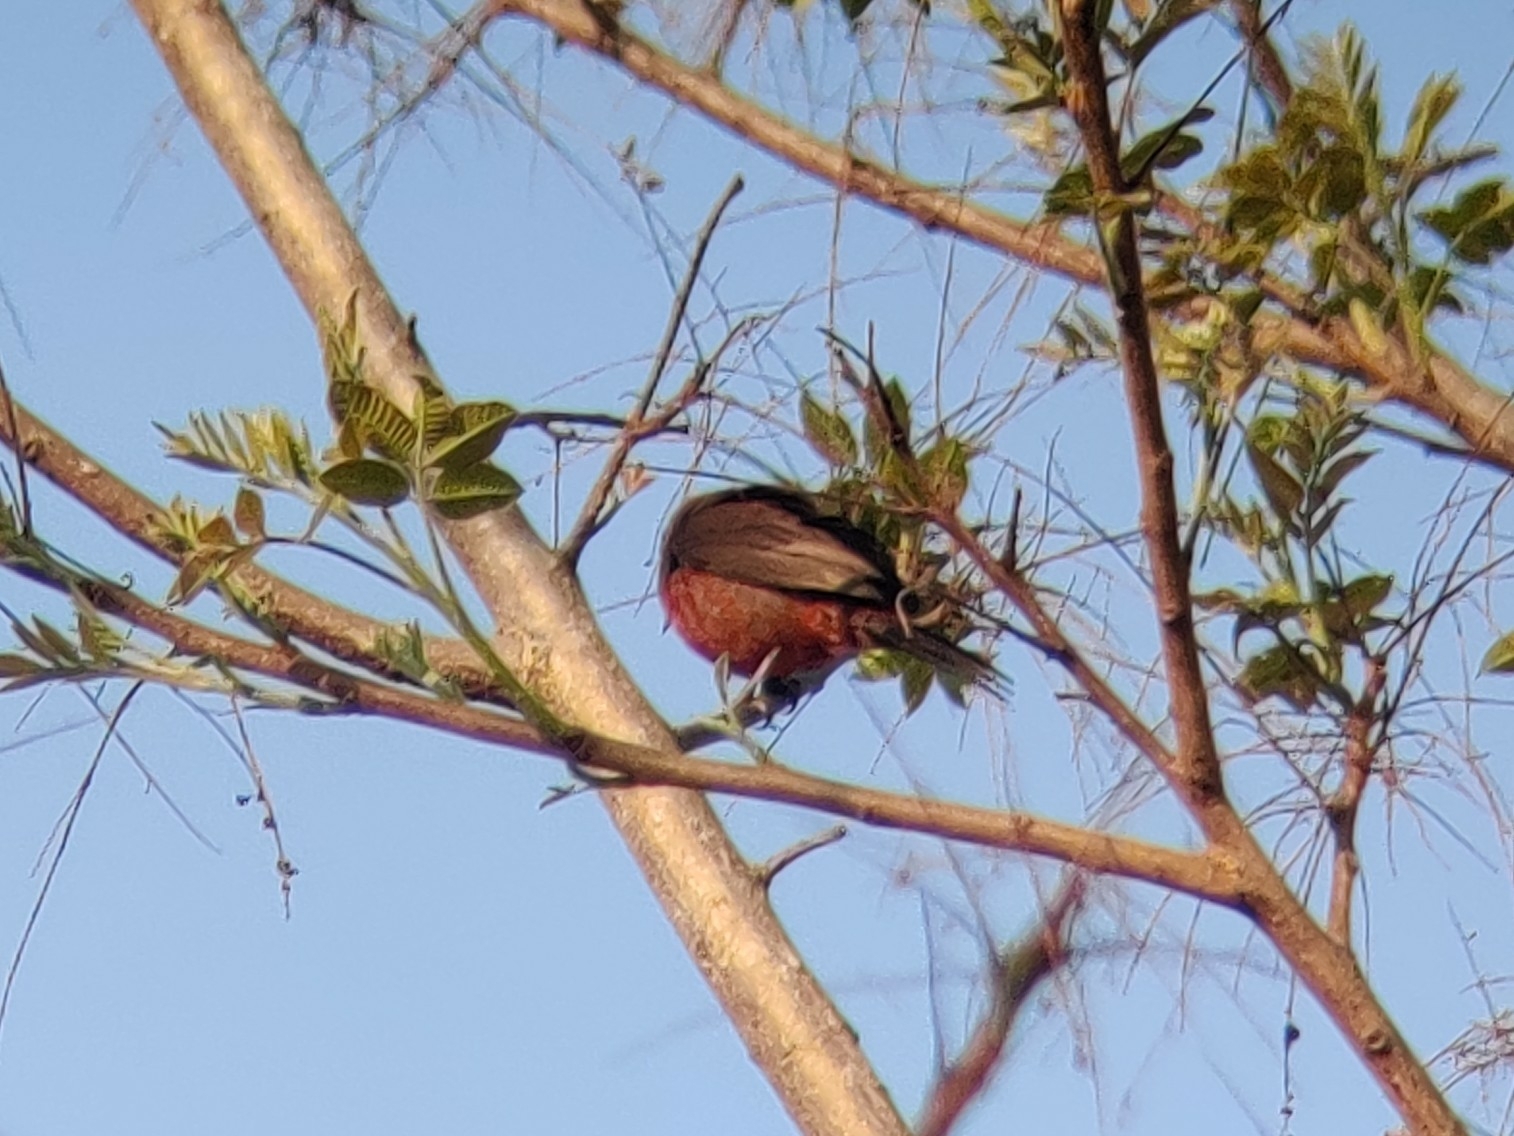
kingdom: Animalia
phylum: Chordata
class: Aves
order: Passeriformes
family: Thraupidae
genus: Coryphospingus
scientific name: Coryphospingus cucullatus
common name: Red pileated finch
